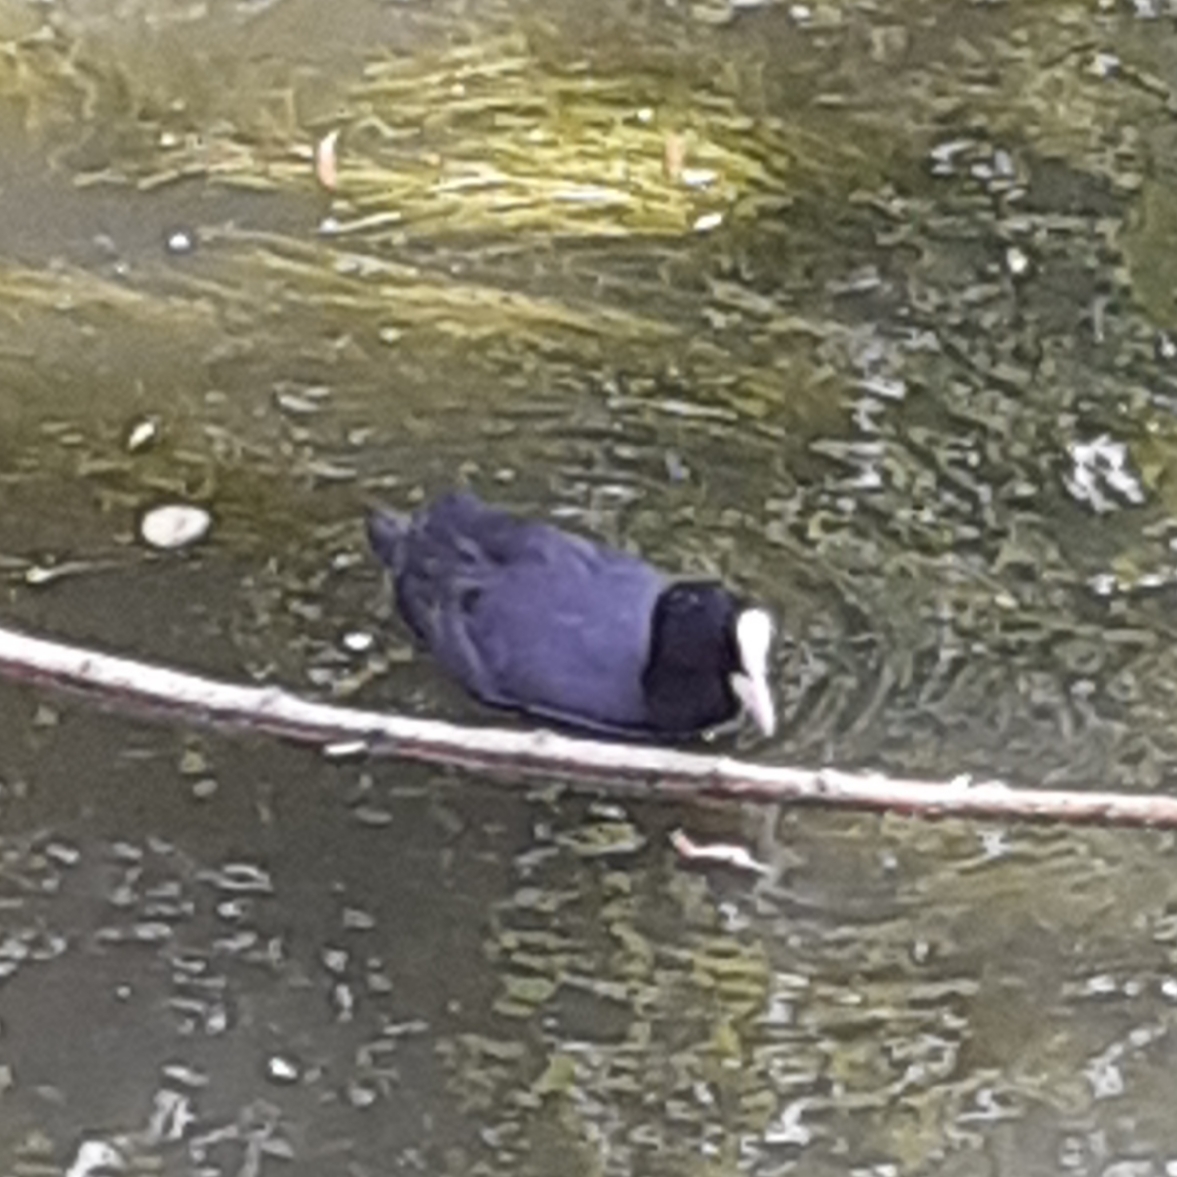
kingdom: Animalia
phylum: Chordata
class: Aves
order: Gruiformes
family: Rallidae
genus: Fulica
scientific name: Fulica atra
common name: Eurasian coot
